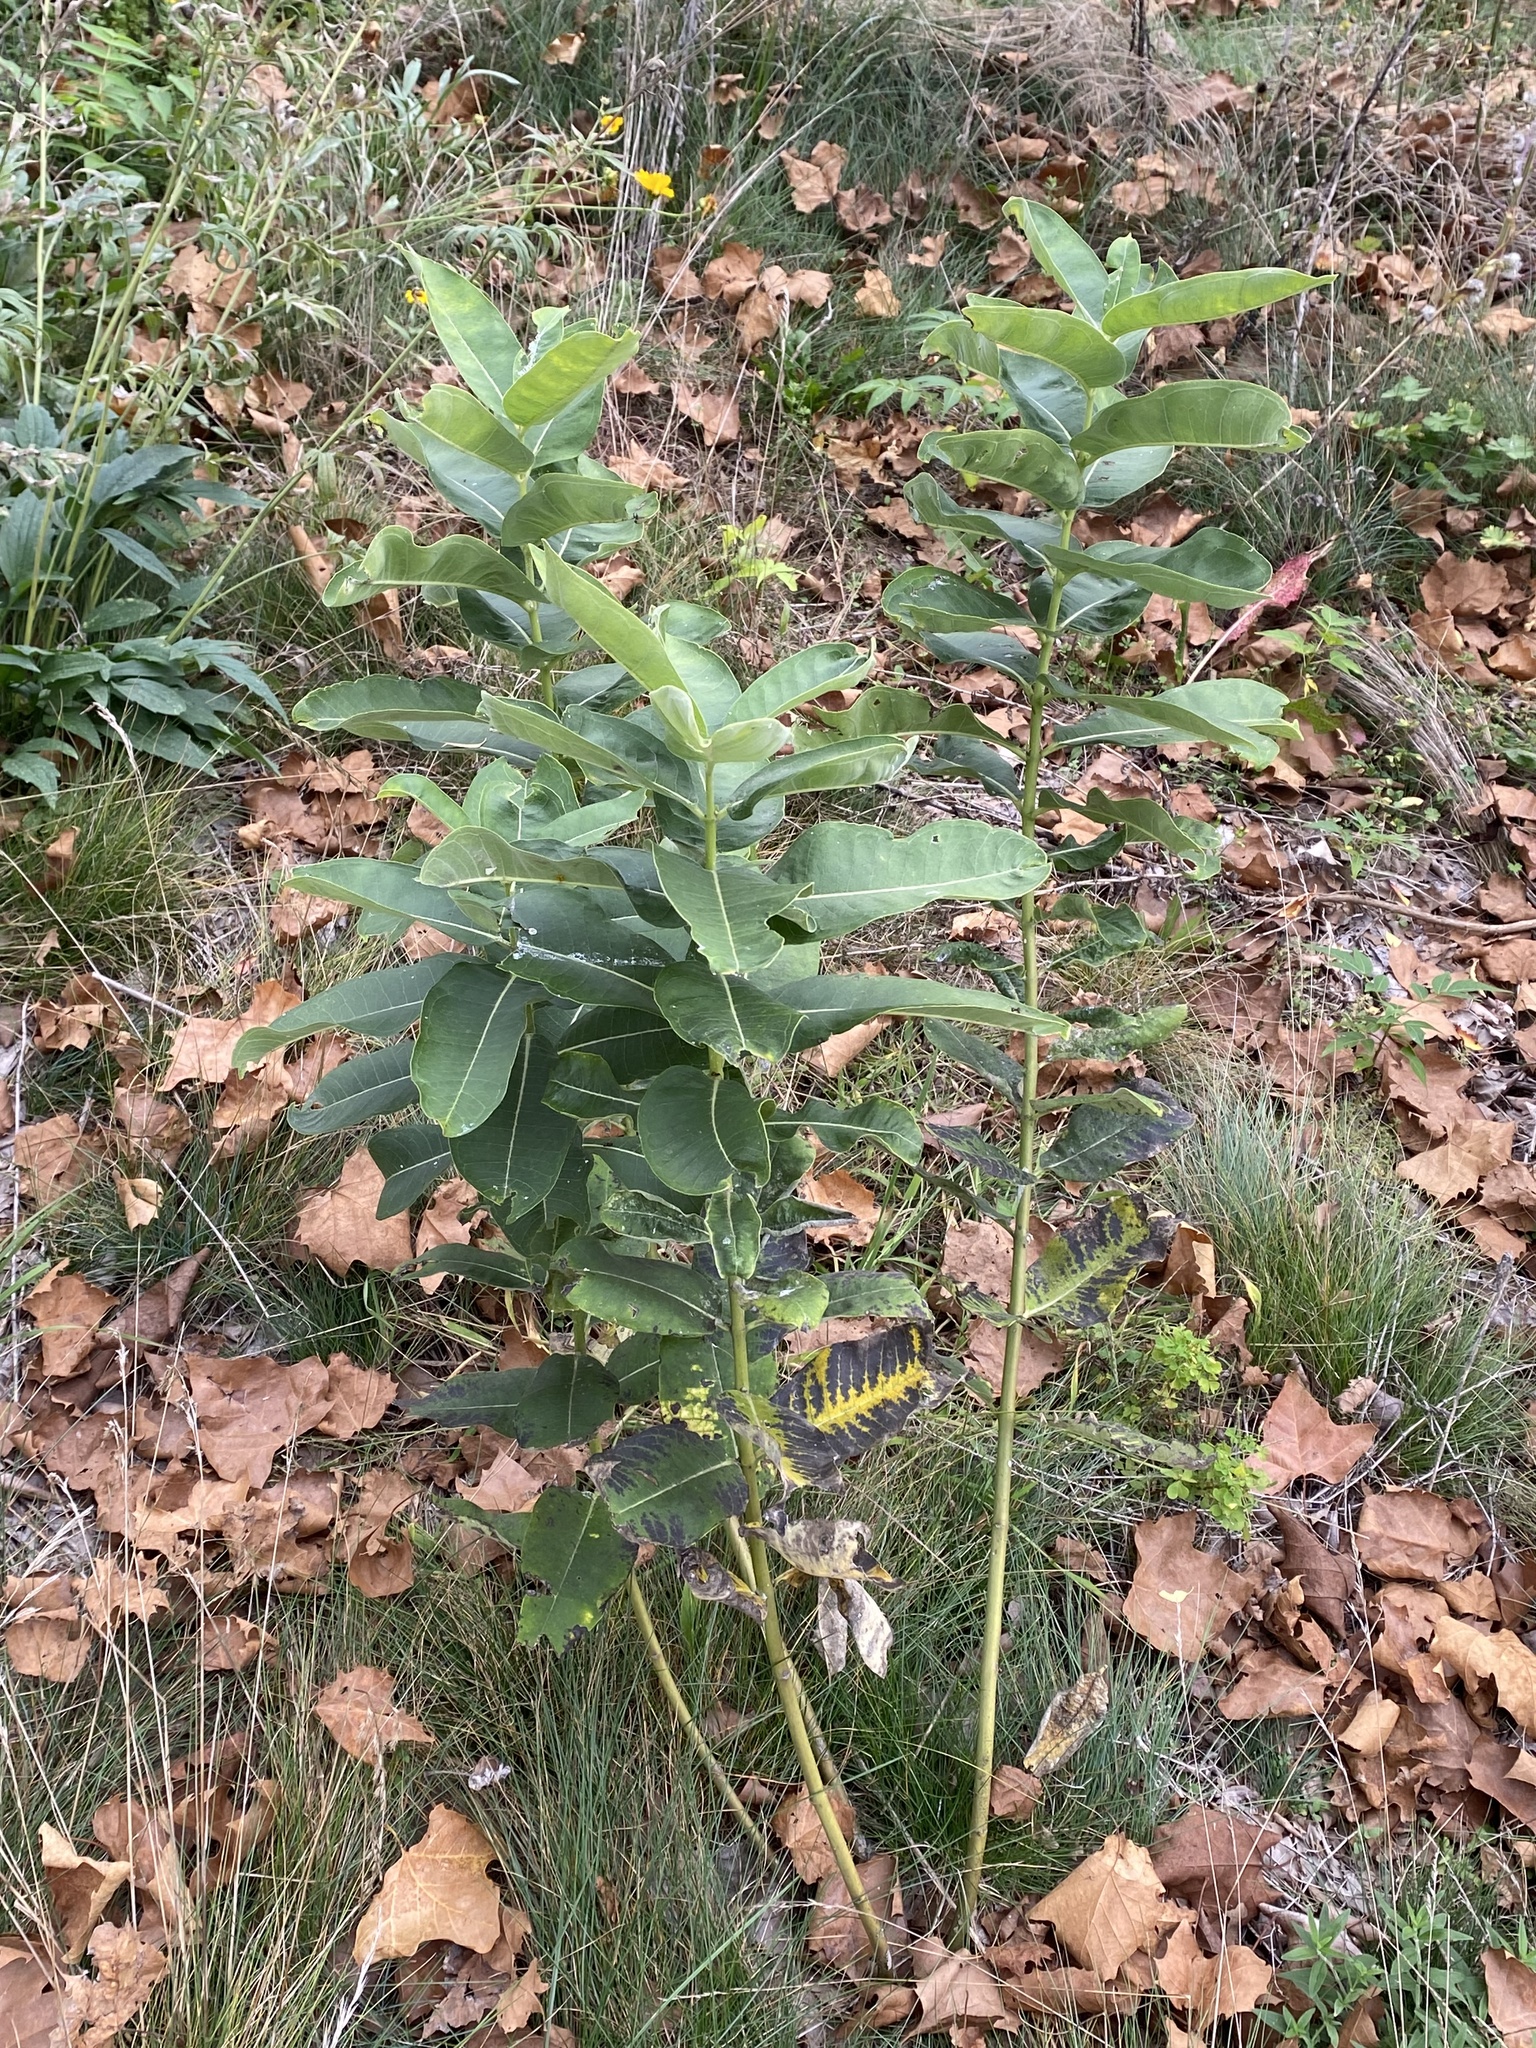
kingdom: Plantae
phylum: Tracheophyta
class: Magnoliopsida
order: Gentianales
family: Apocynaceae
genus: Asclepias
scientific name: Asclepias syriaca
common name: Common milkweed
